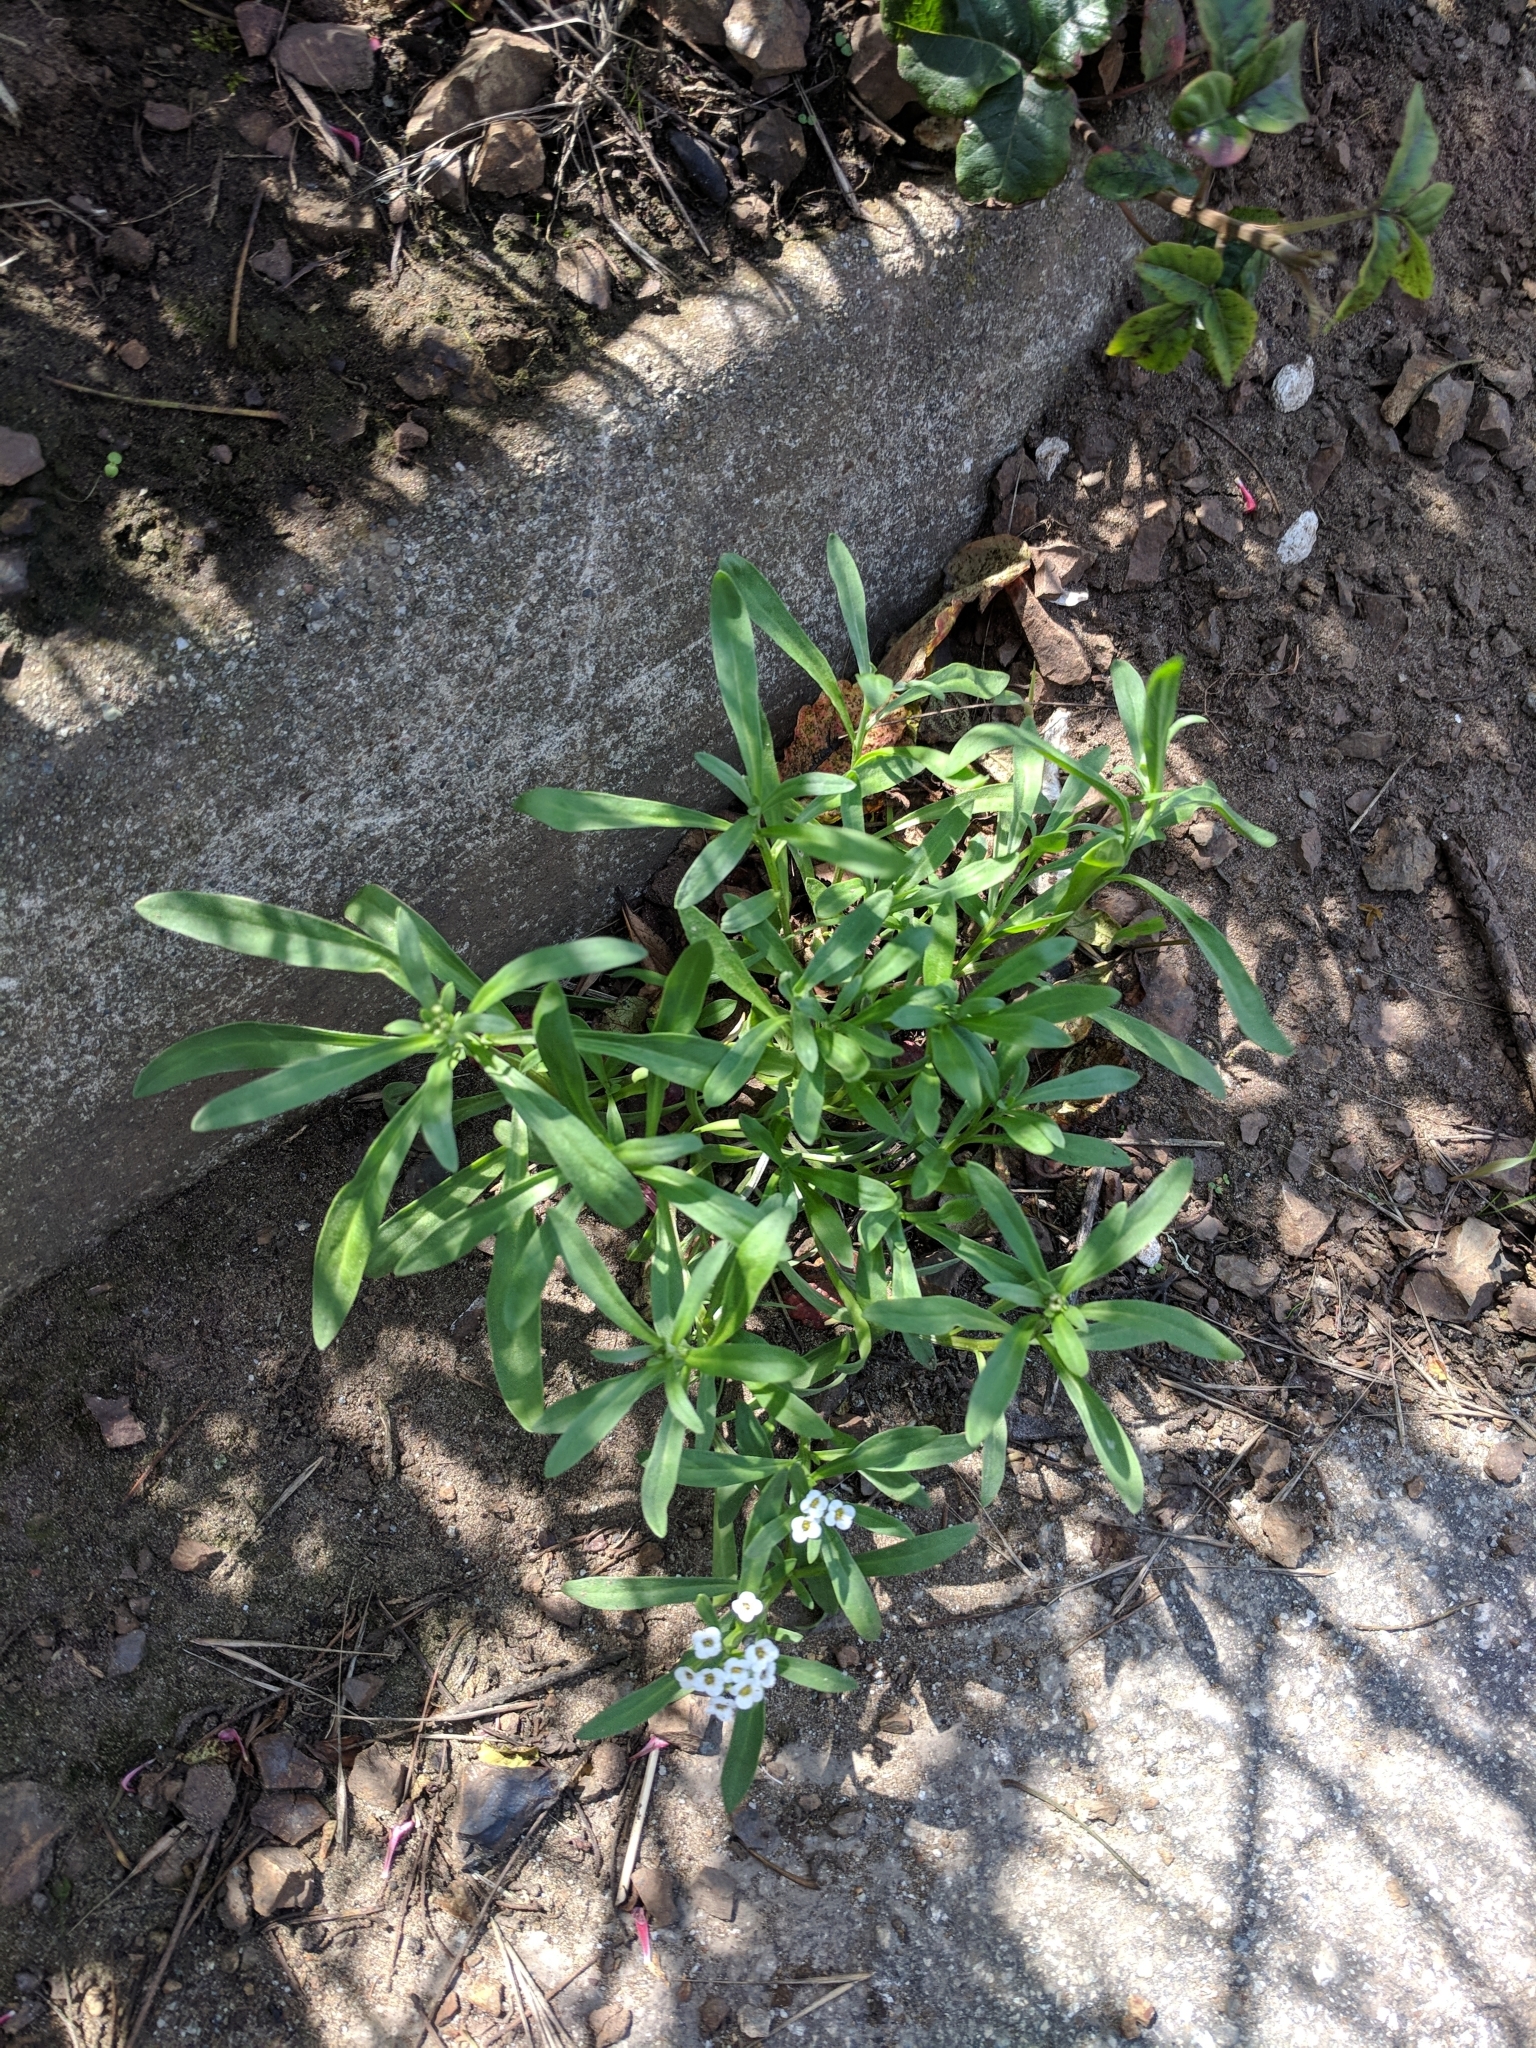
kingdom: Plantae
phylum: Tracheophyta
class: Magnoliopsida
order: Brassicales
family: Brassicaceae
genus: Lobularia
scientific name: Lobularia maritima
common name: Sweet alison
